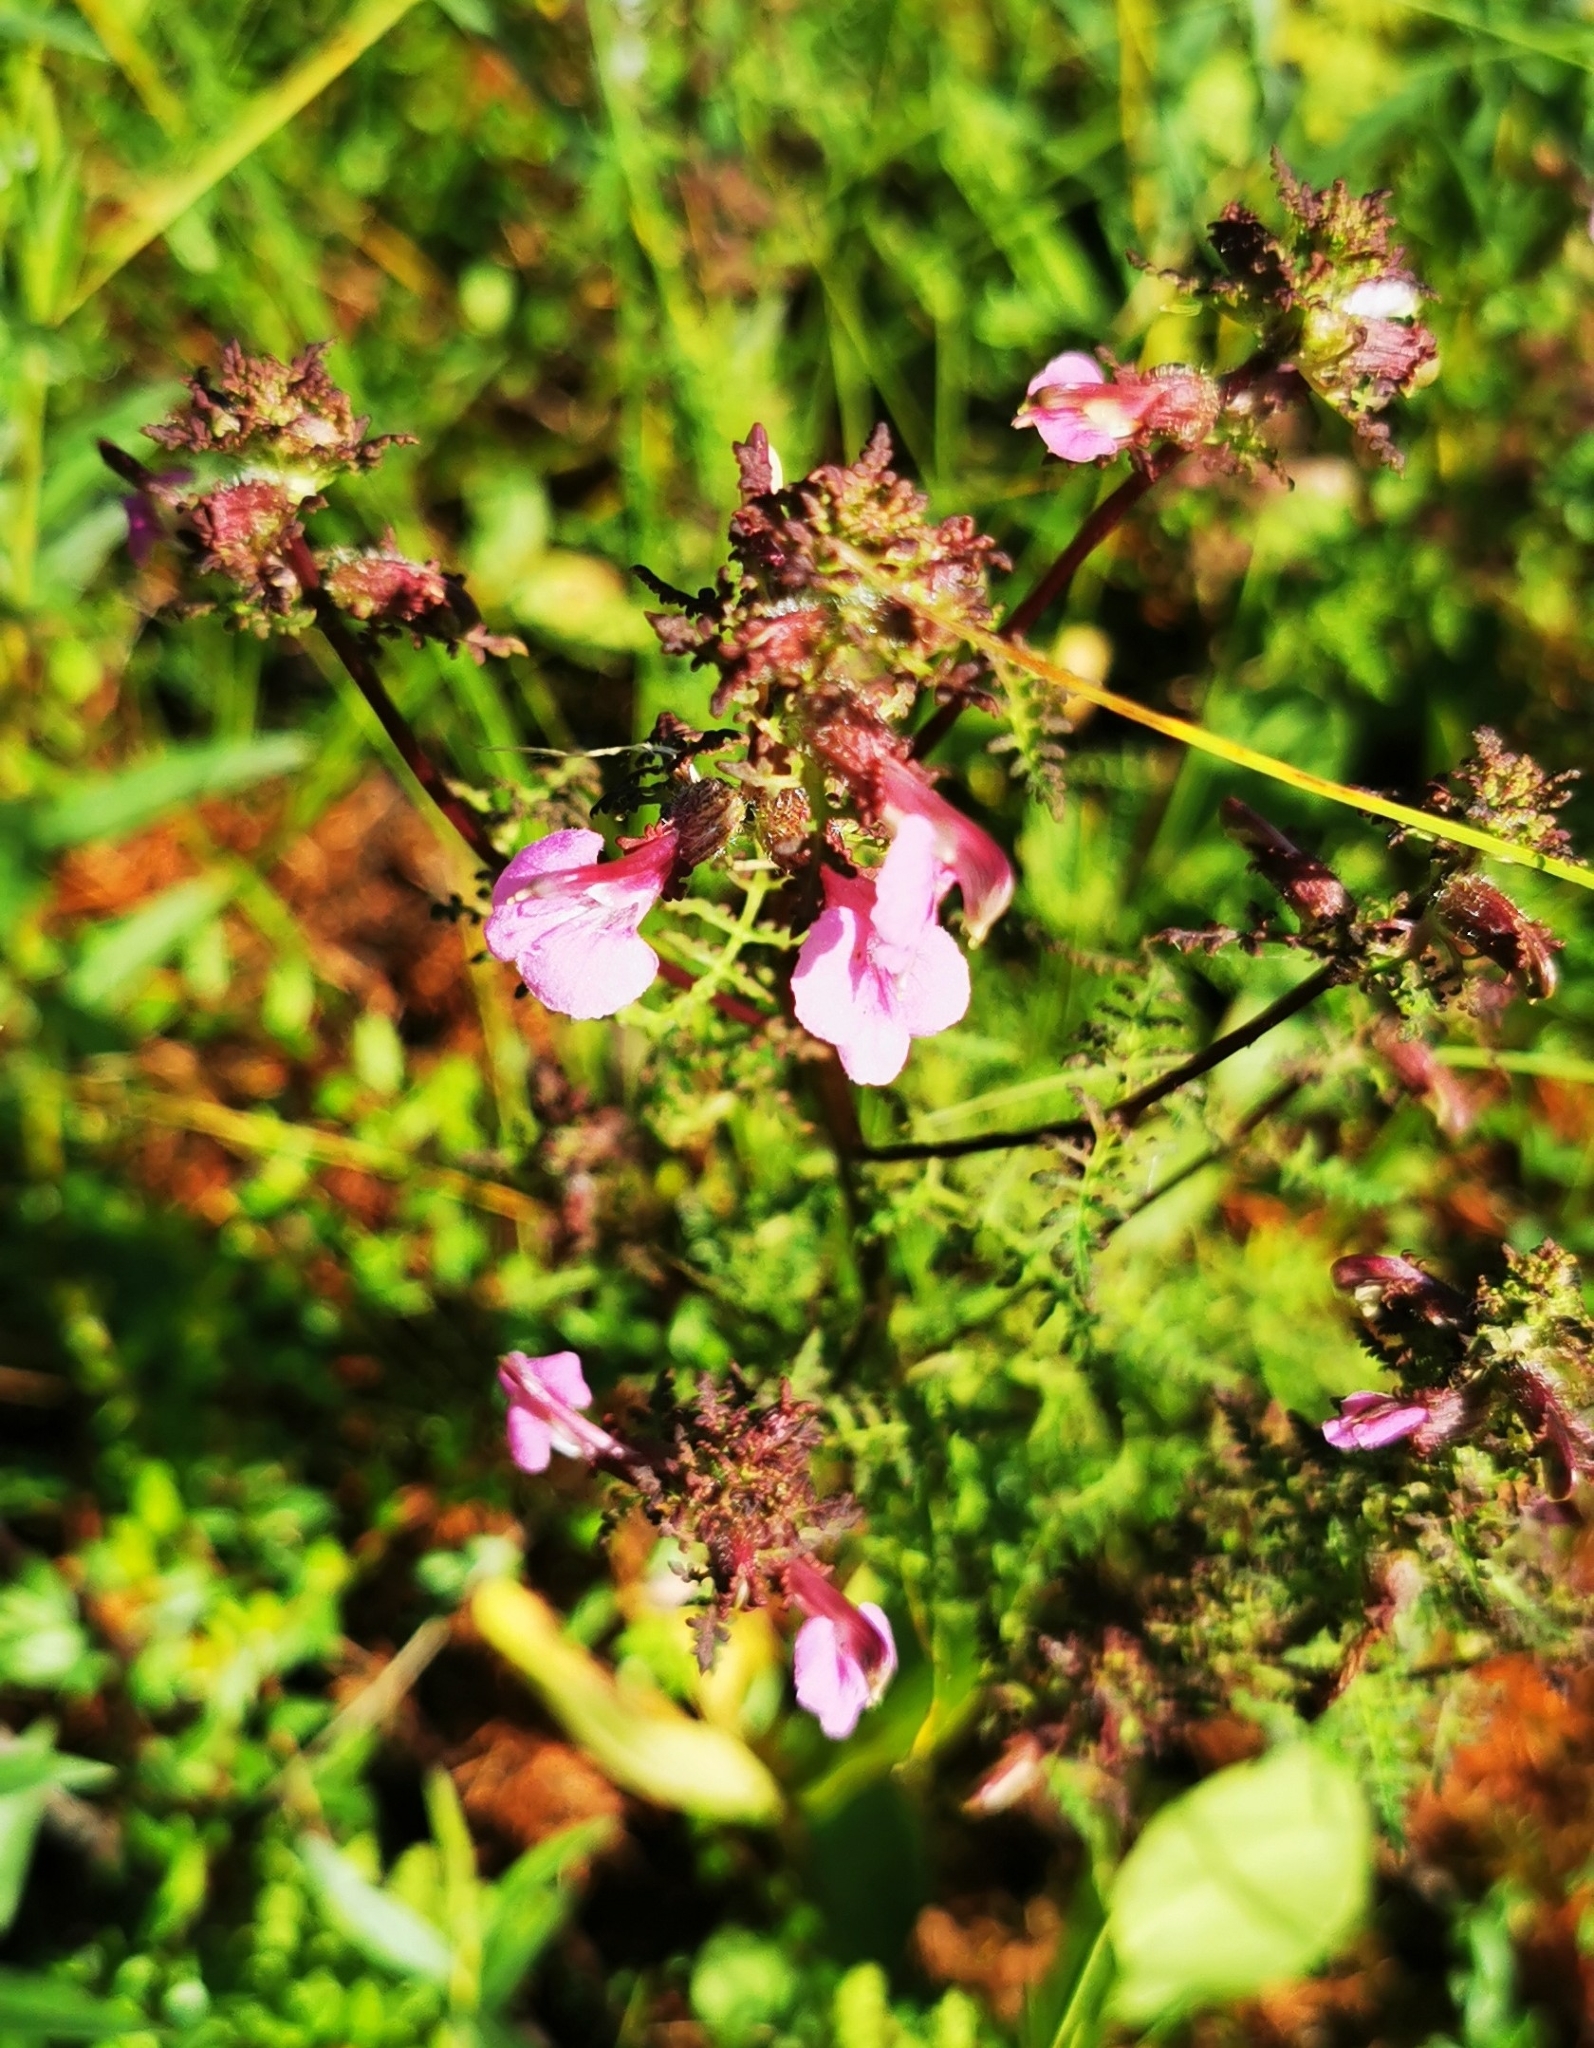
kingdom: Plantae
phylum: Tracheophyta
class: Magnoliopsida
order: Lamiales
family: Orobanchaceae
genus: Pedicularis
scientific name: Pedicularis palustris
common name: Marsh lousewort
